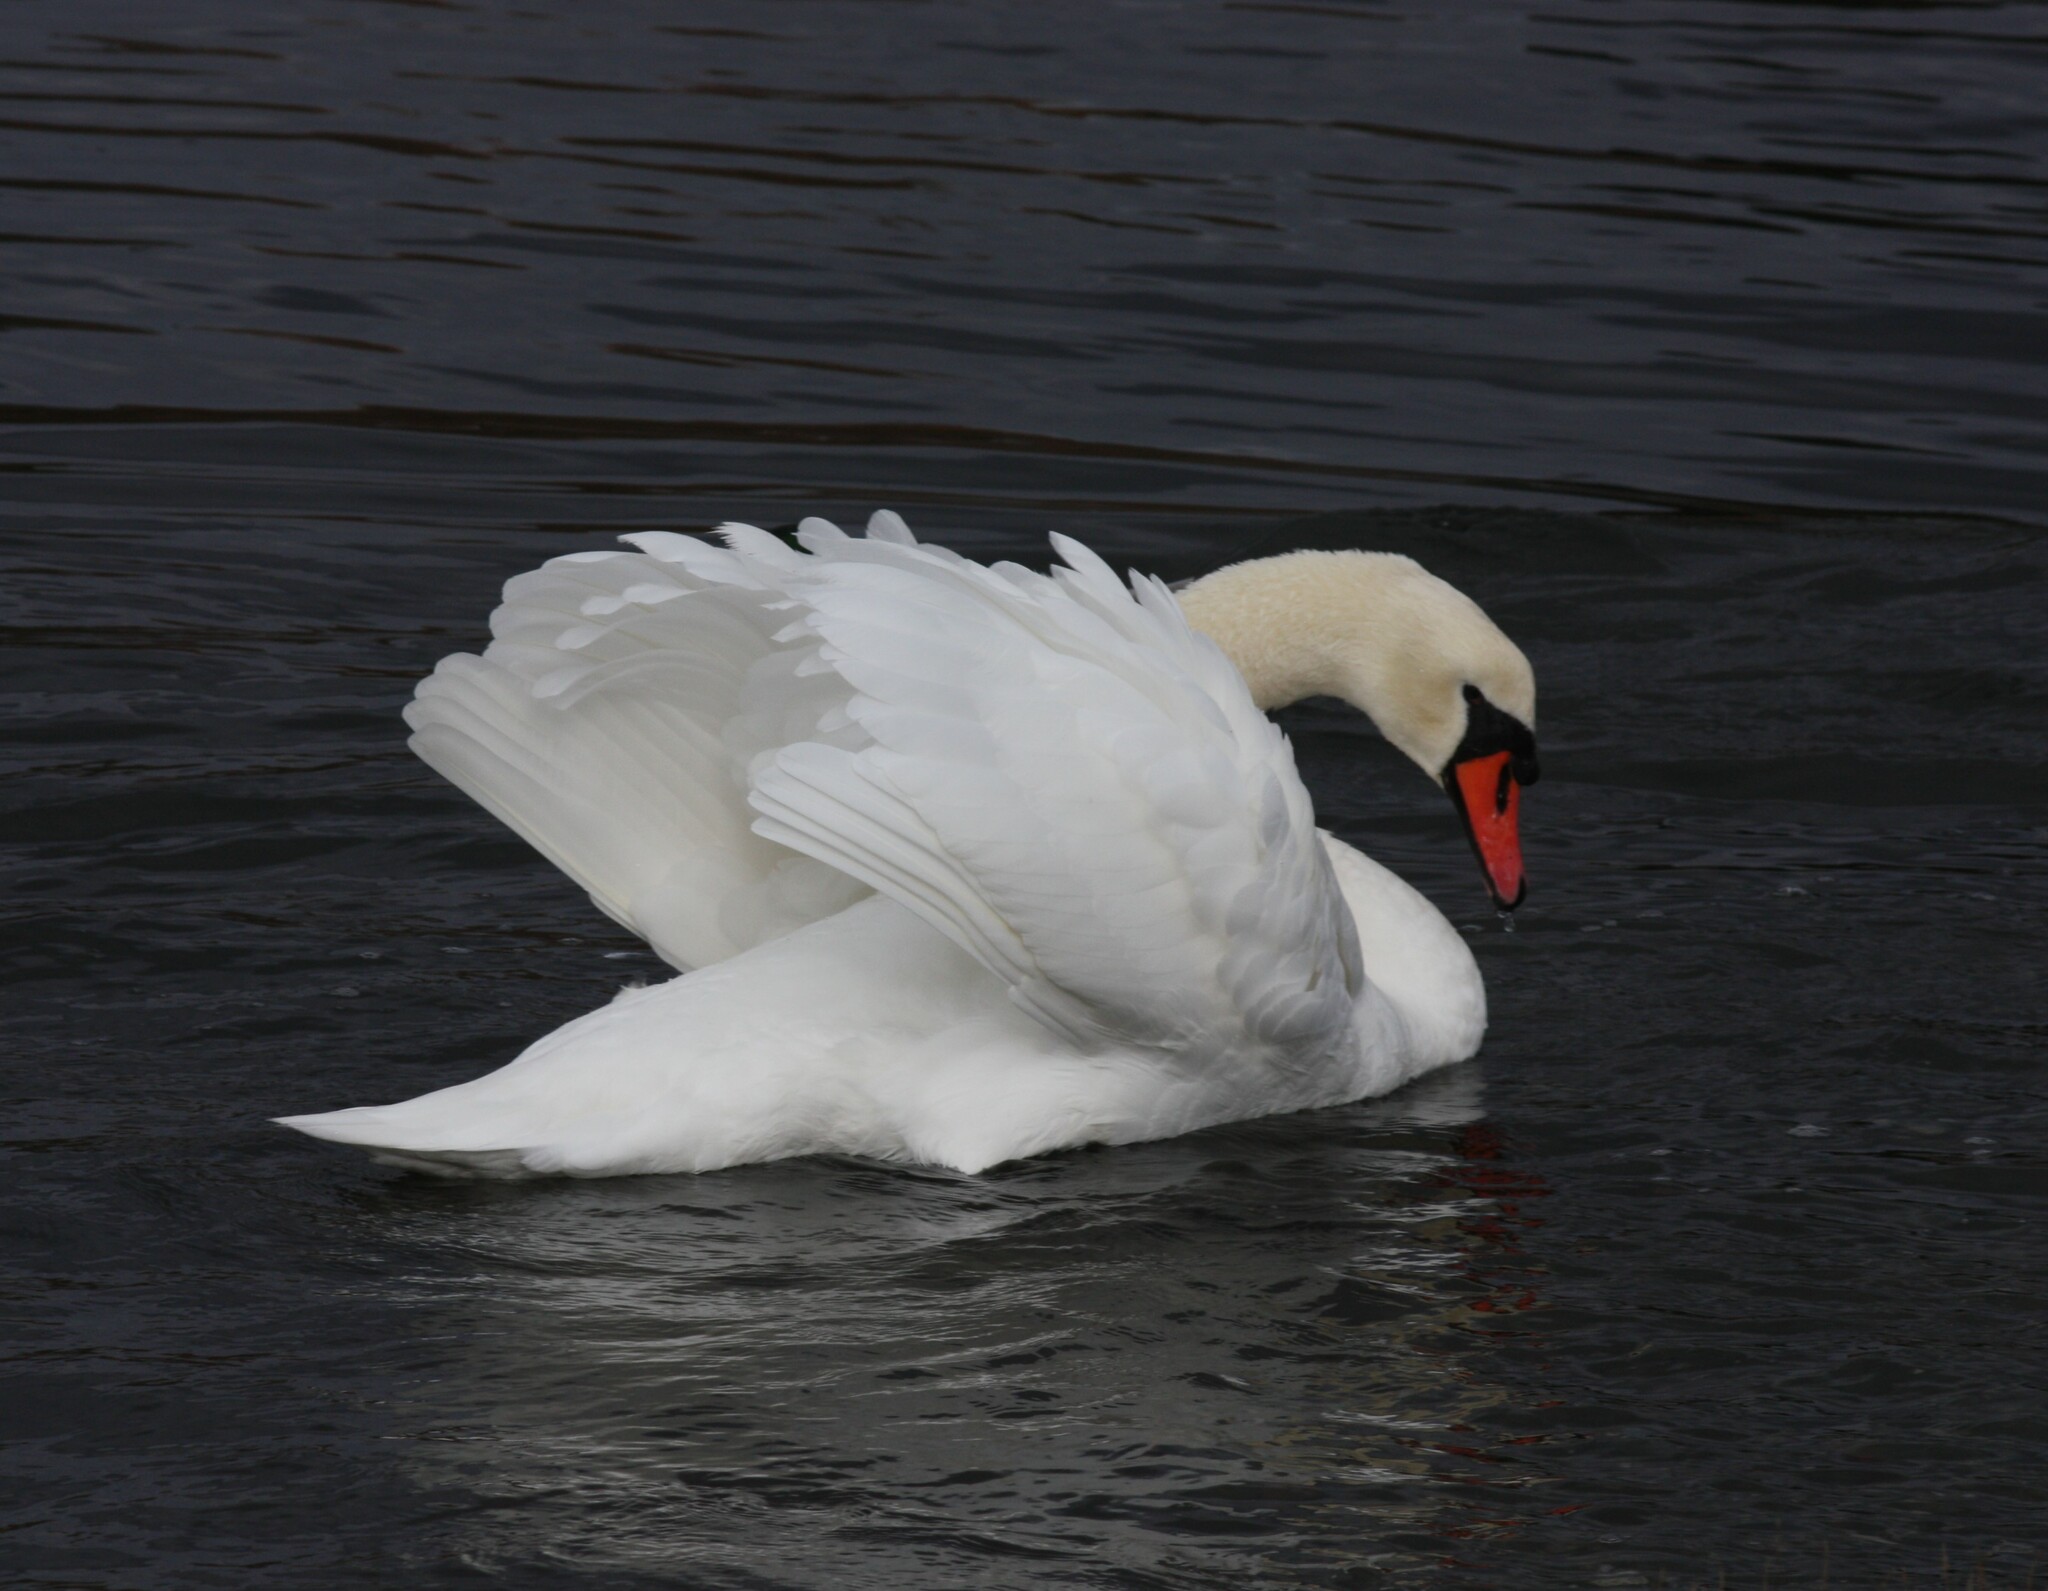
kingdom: Animalia
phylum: Chordata
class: Aves
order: Anseriformes
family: Anatidae
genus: Cygnus
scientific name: Cygnus olor
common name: Mute swan
